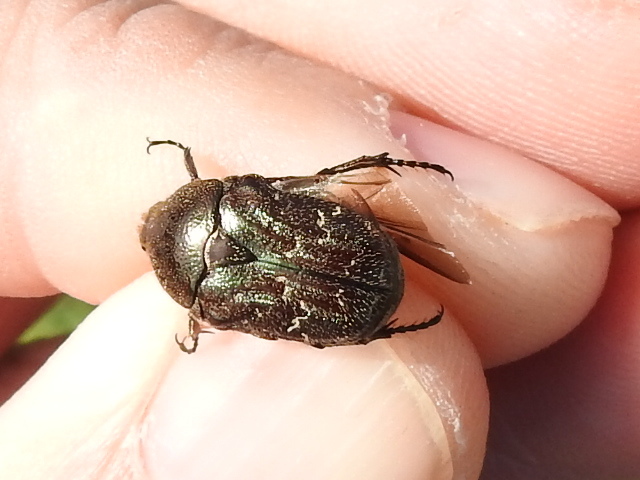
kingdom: Animalia
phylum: Arthropoda
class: Insecta
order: Coleoptera
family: Scarabaeidae
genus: Euphoria
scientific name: Euphoria sepulcralis
